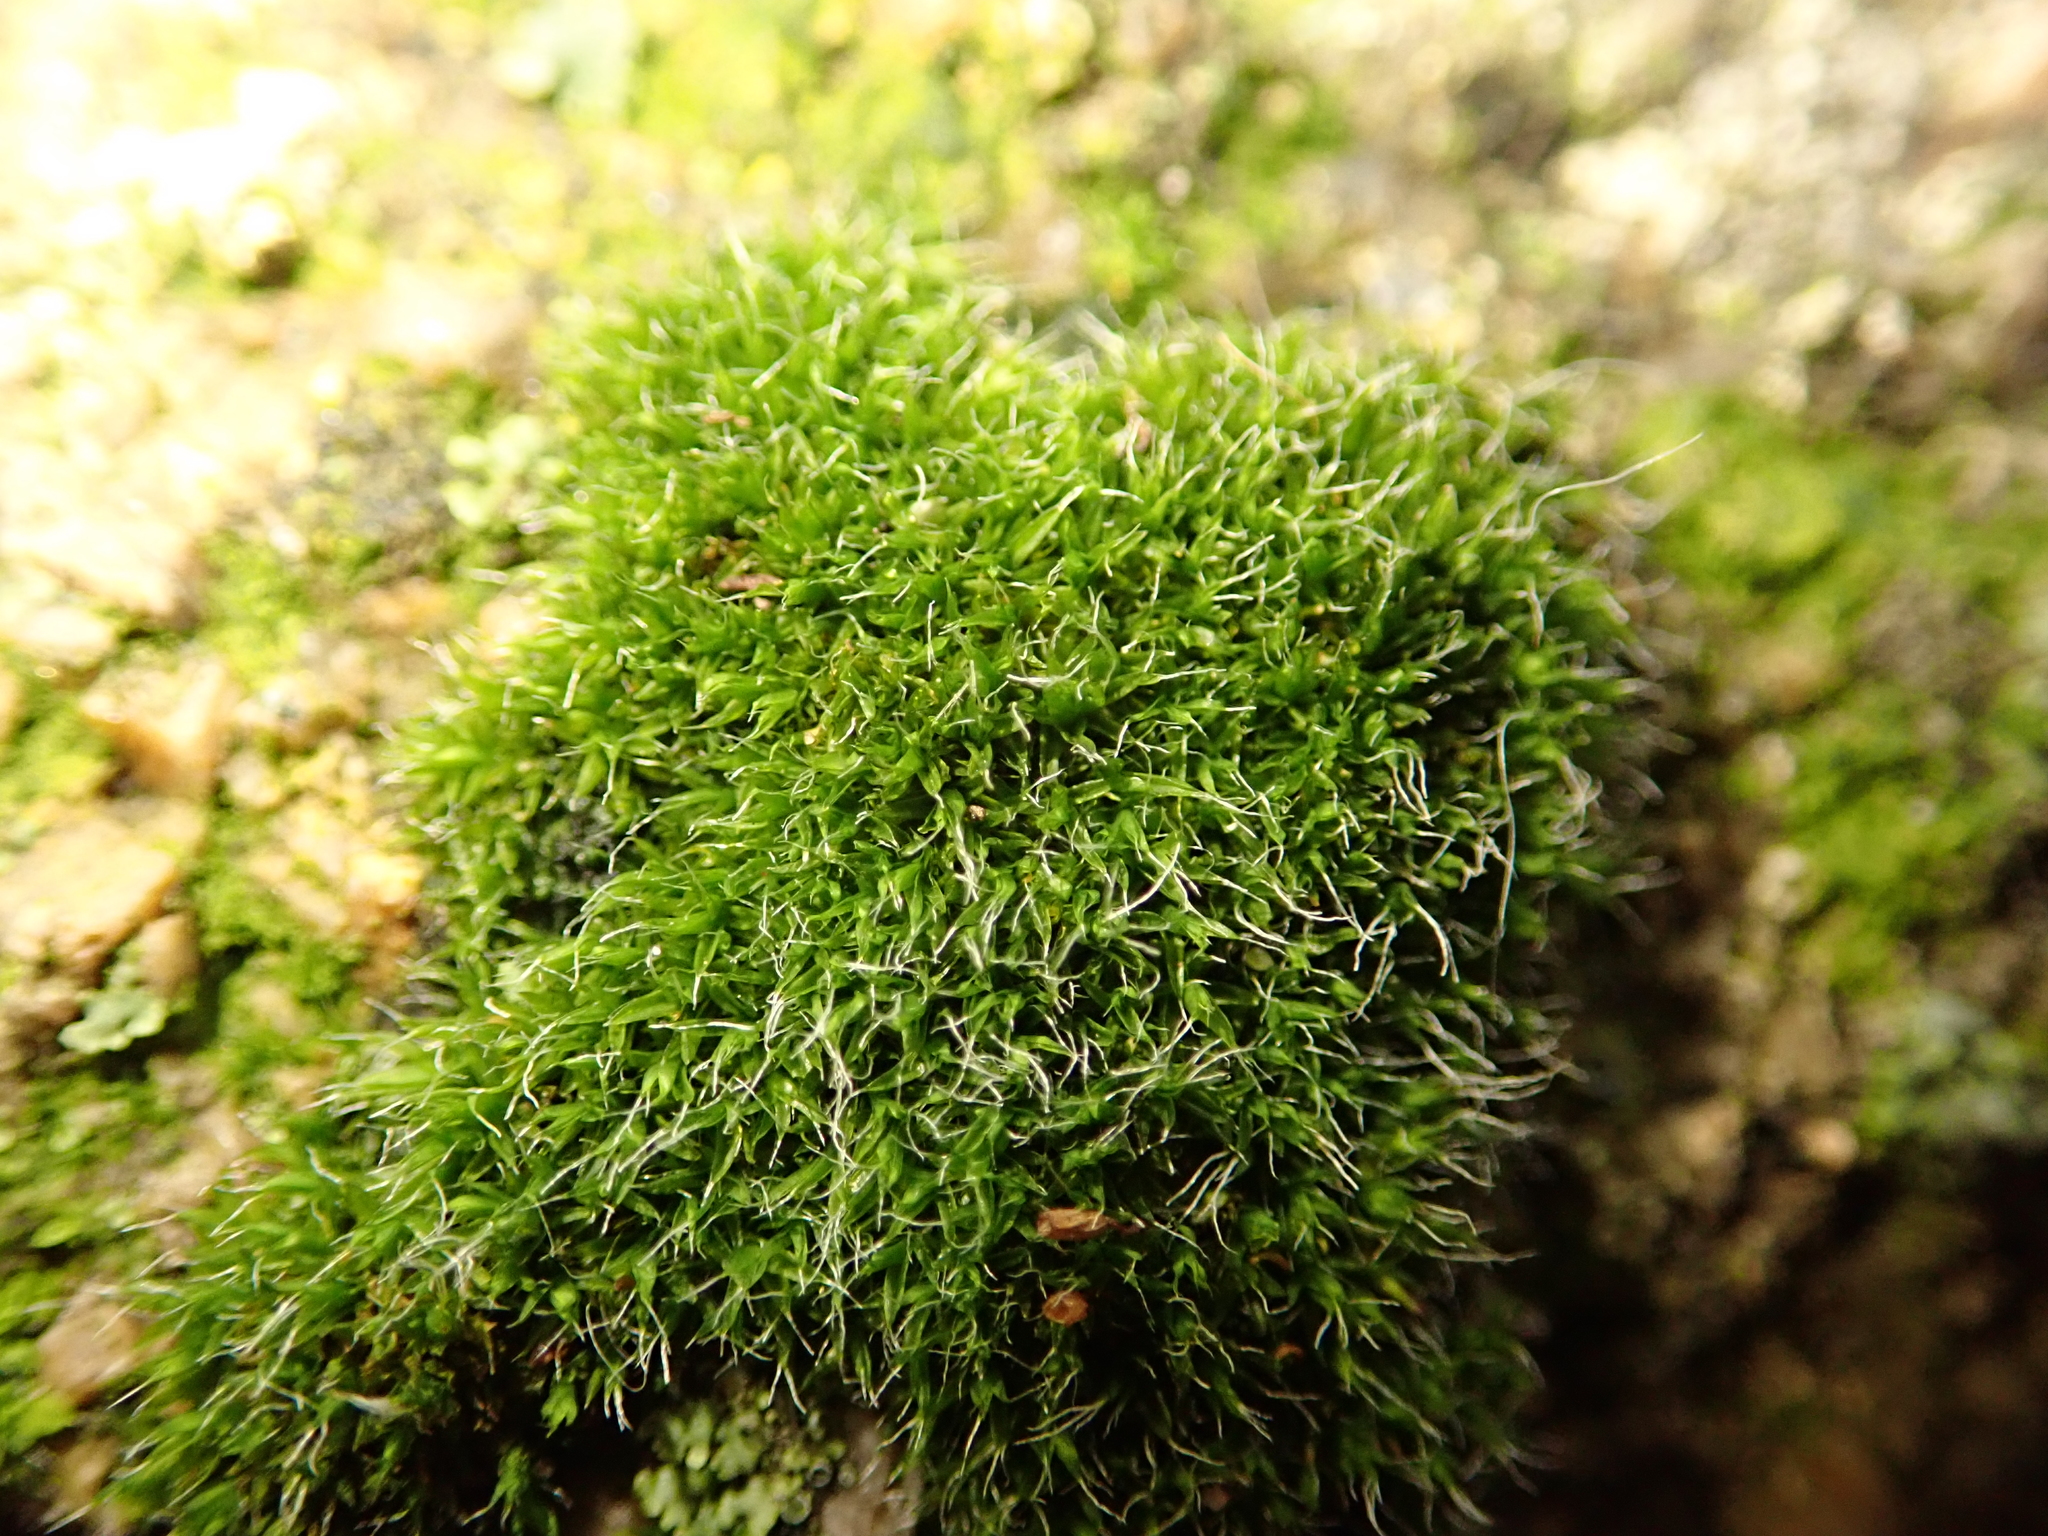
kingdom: Plantae
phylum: Bryophyta
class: Bryopsida
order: Grimmiales
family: Grimmiaceae
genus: Grimmia
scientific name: Grimmia pulvinata
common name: Grey-cushioned grimmia
